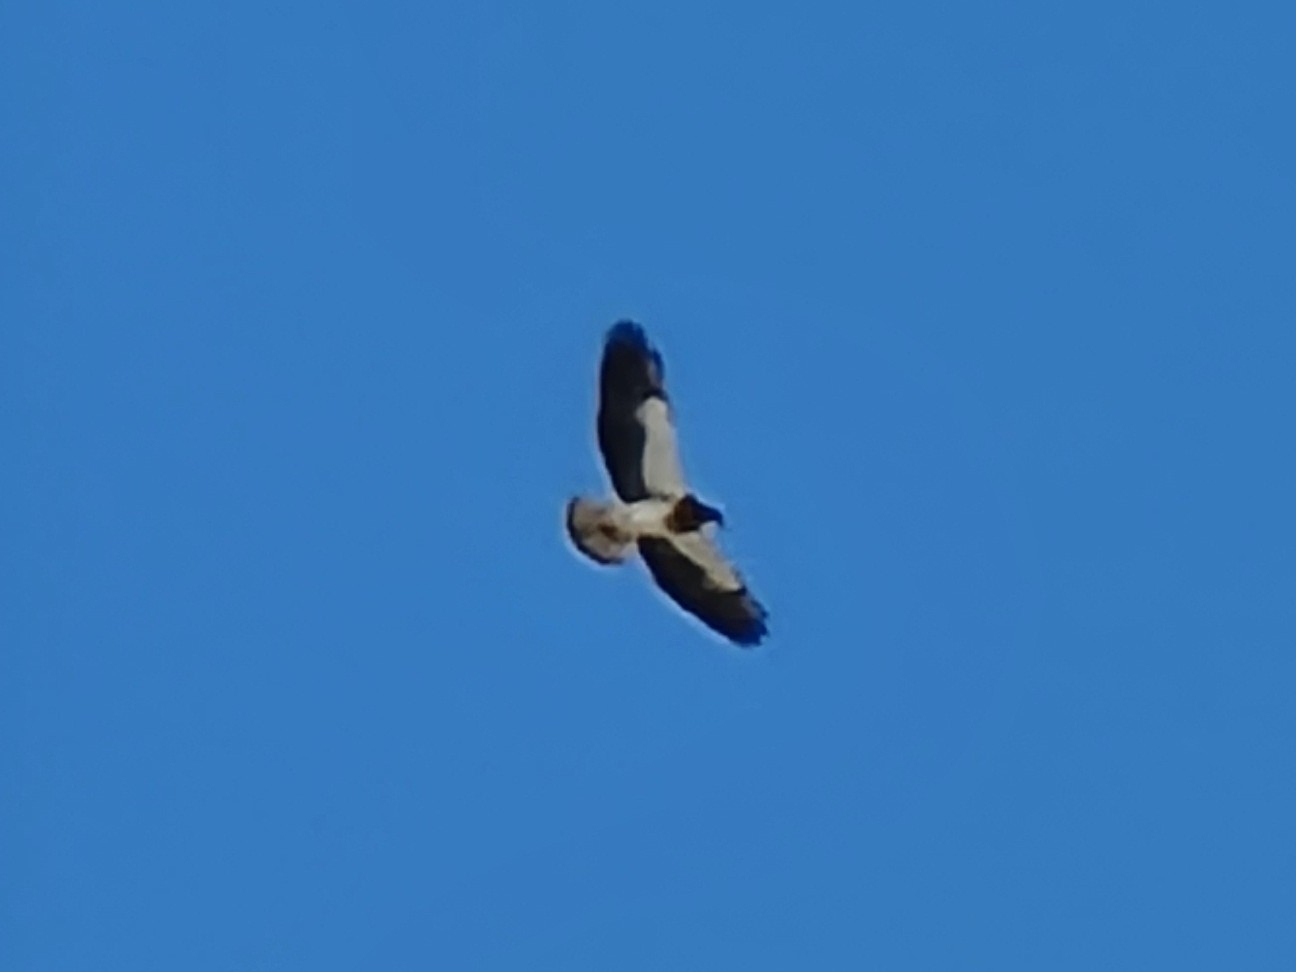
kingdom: Animalia
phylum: Chordata
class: Aves
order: Accipitriformes
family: Accipitridae
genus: Buteo
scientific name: Buteo swainsoni
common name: Swainson's hawk
